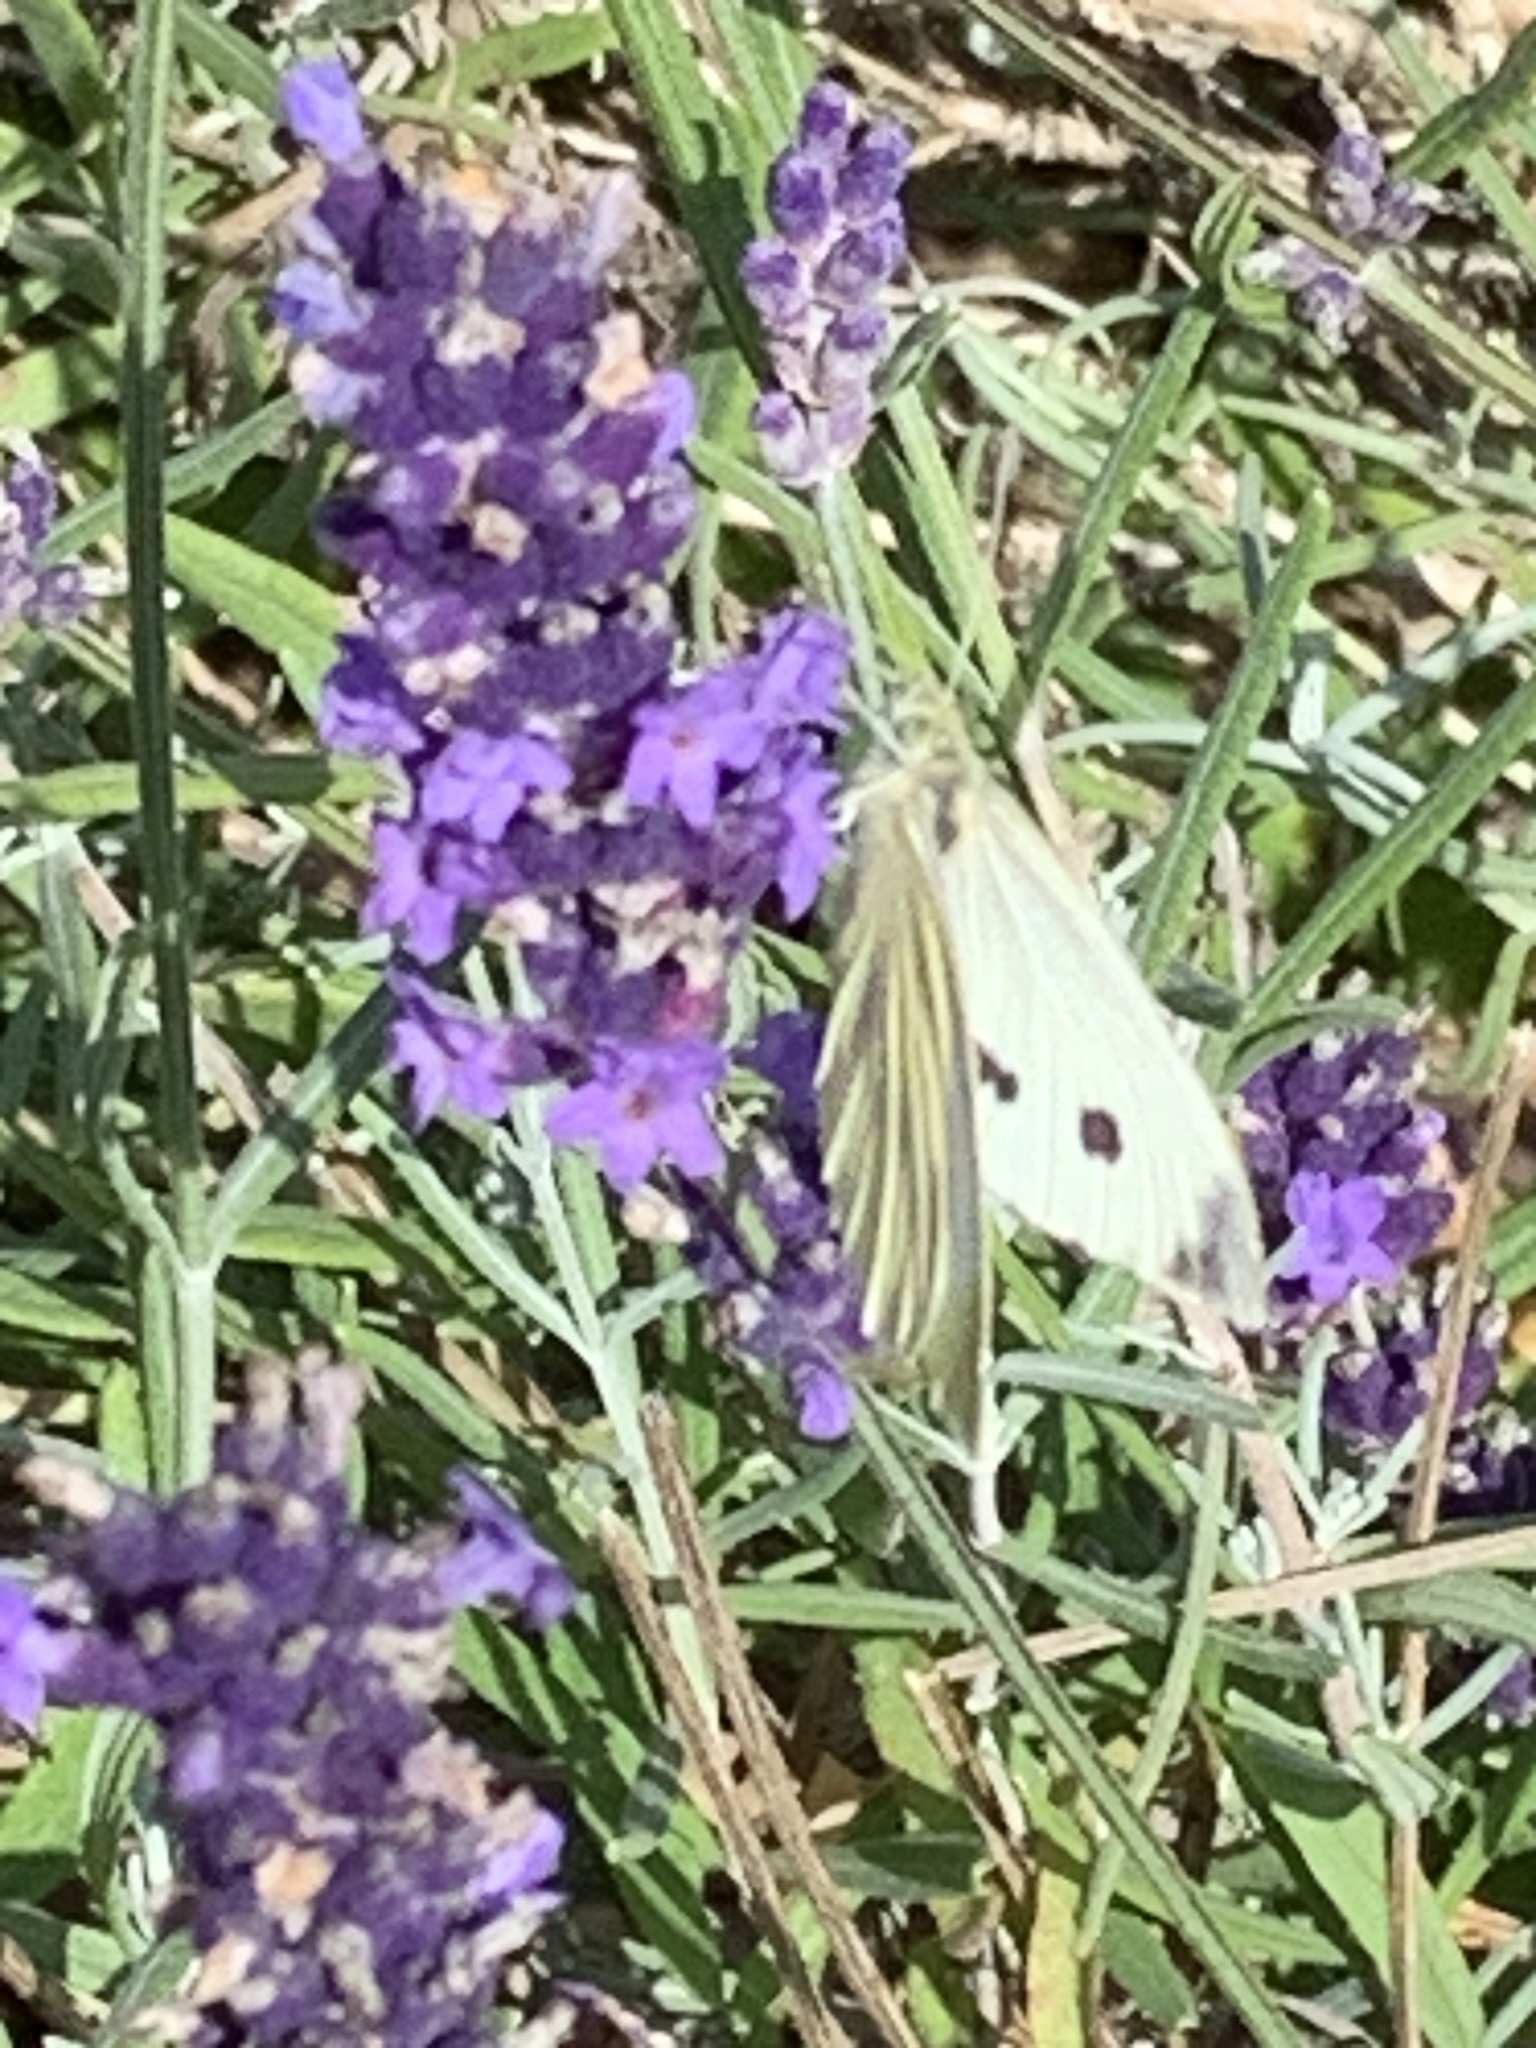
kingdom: Animalia
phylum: Arthropoda
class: Insecta
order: Lepidoptera
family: Pieridae
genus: Pieris
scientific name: Pieris rapae
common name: Small white
